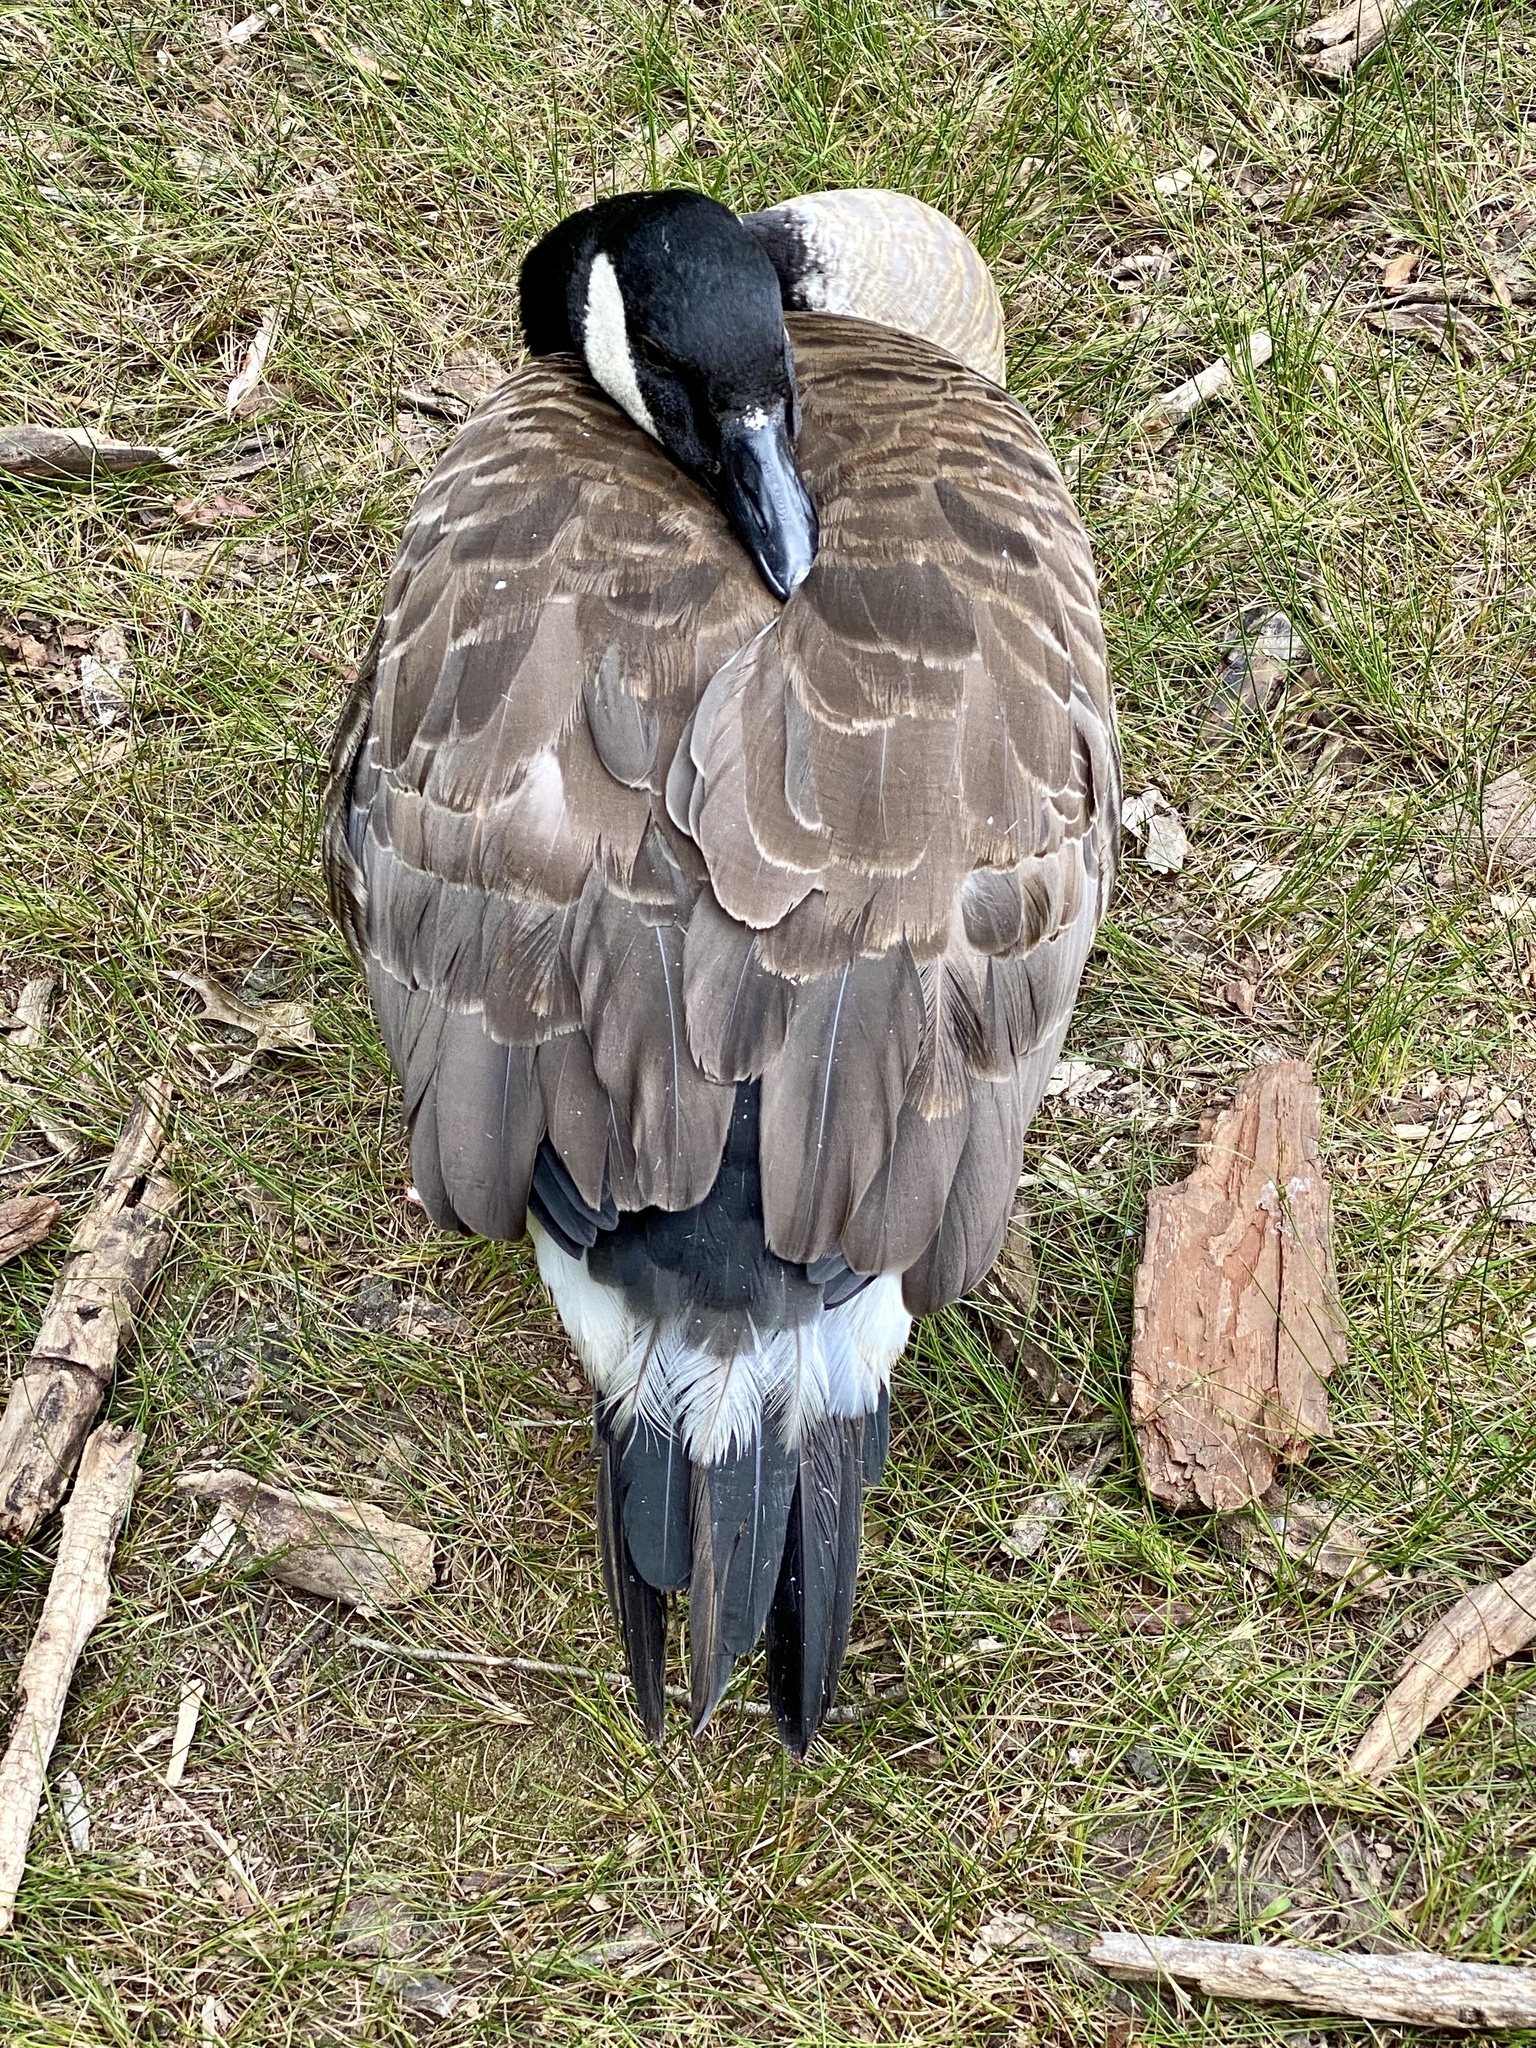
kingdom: Animalia
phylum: Chordata
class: Aves
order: Anseriformes
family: Anatidae
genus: Branta
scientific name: Branta canadensis
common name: Canada goose
